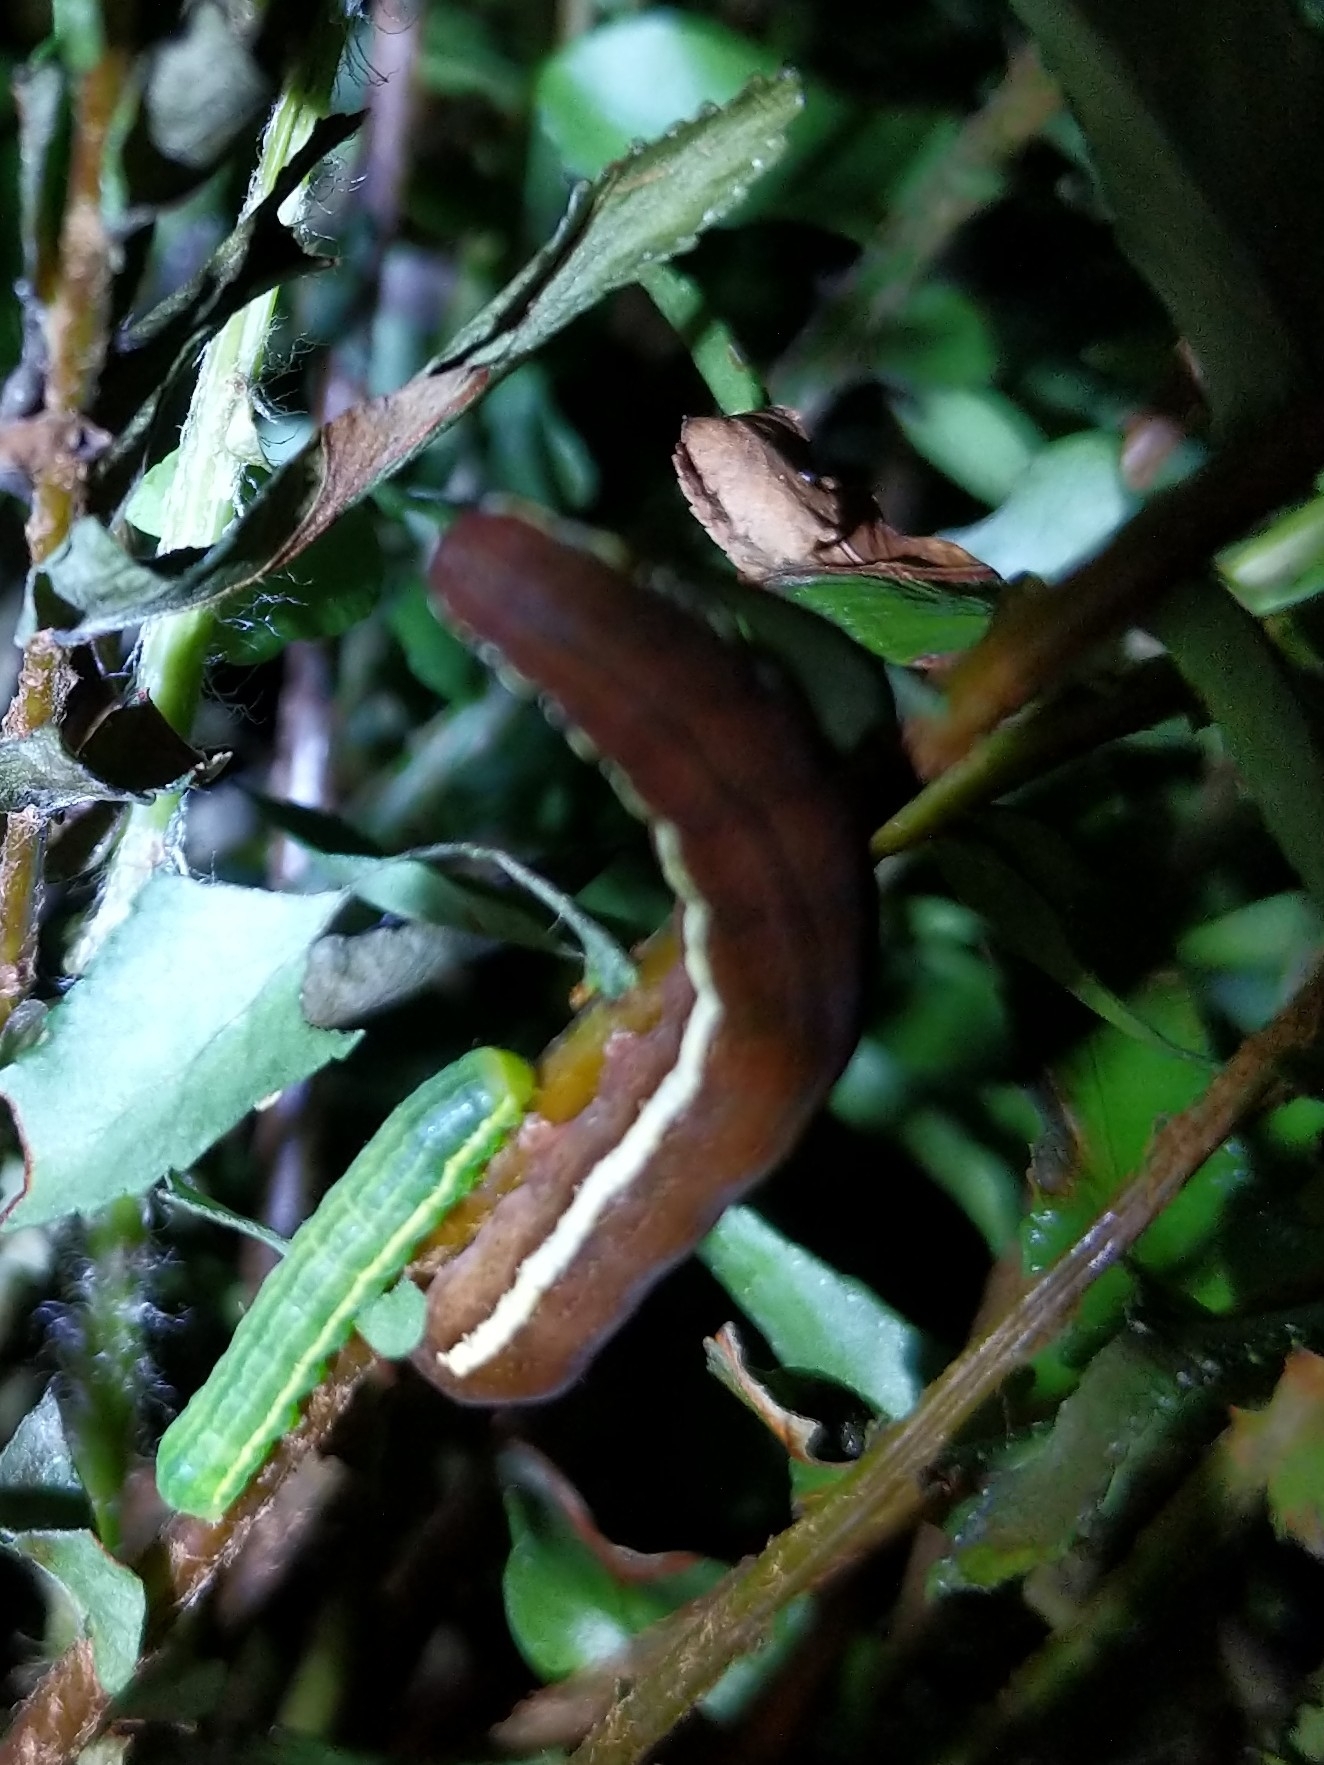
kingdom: Animalia
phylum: Arthropoda
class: Insecta
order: Lepidoptera
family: Noctuidae
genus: Callopistria
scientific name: Callopistria floridensis
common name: Florida fern moth
